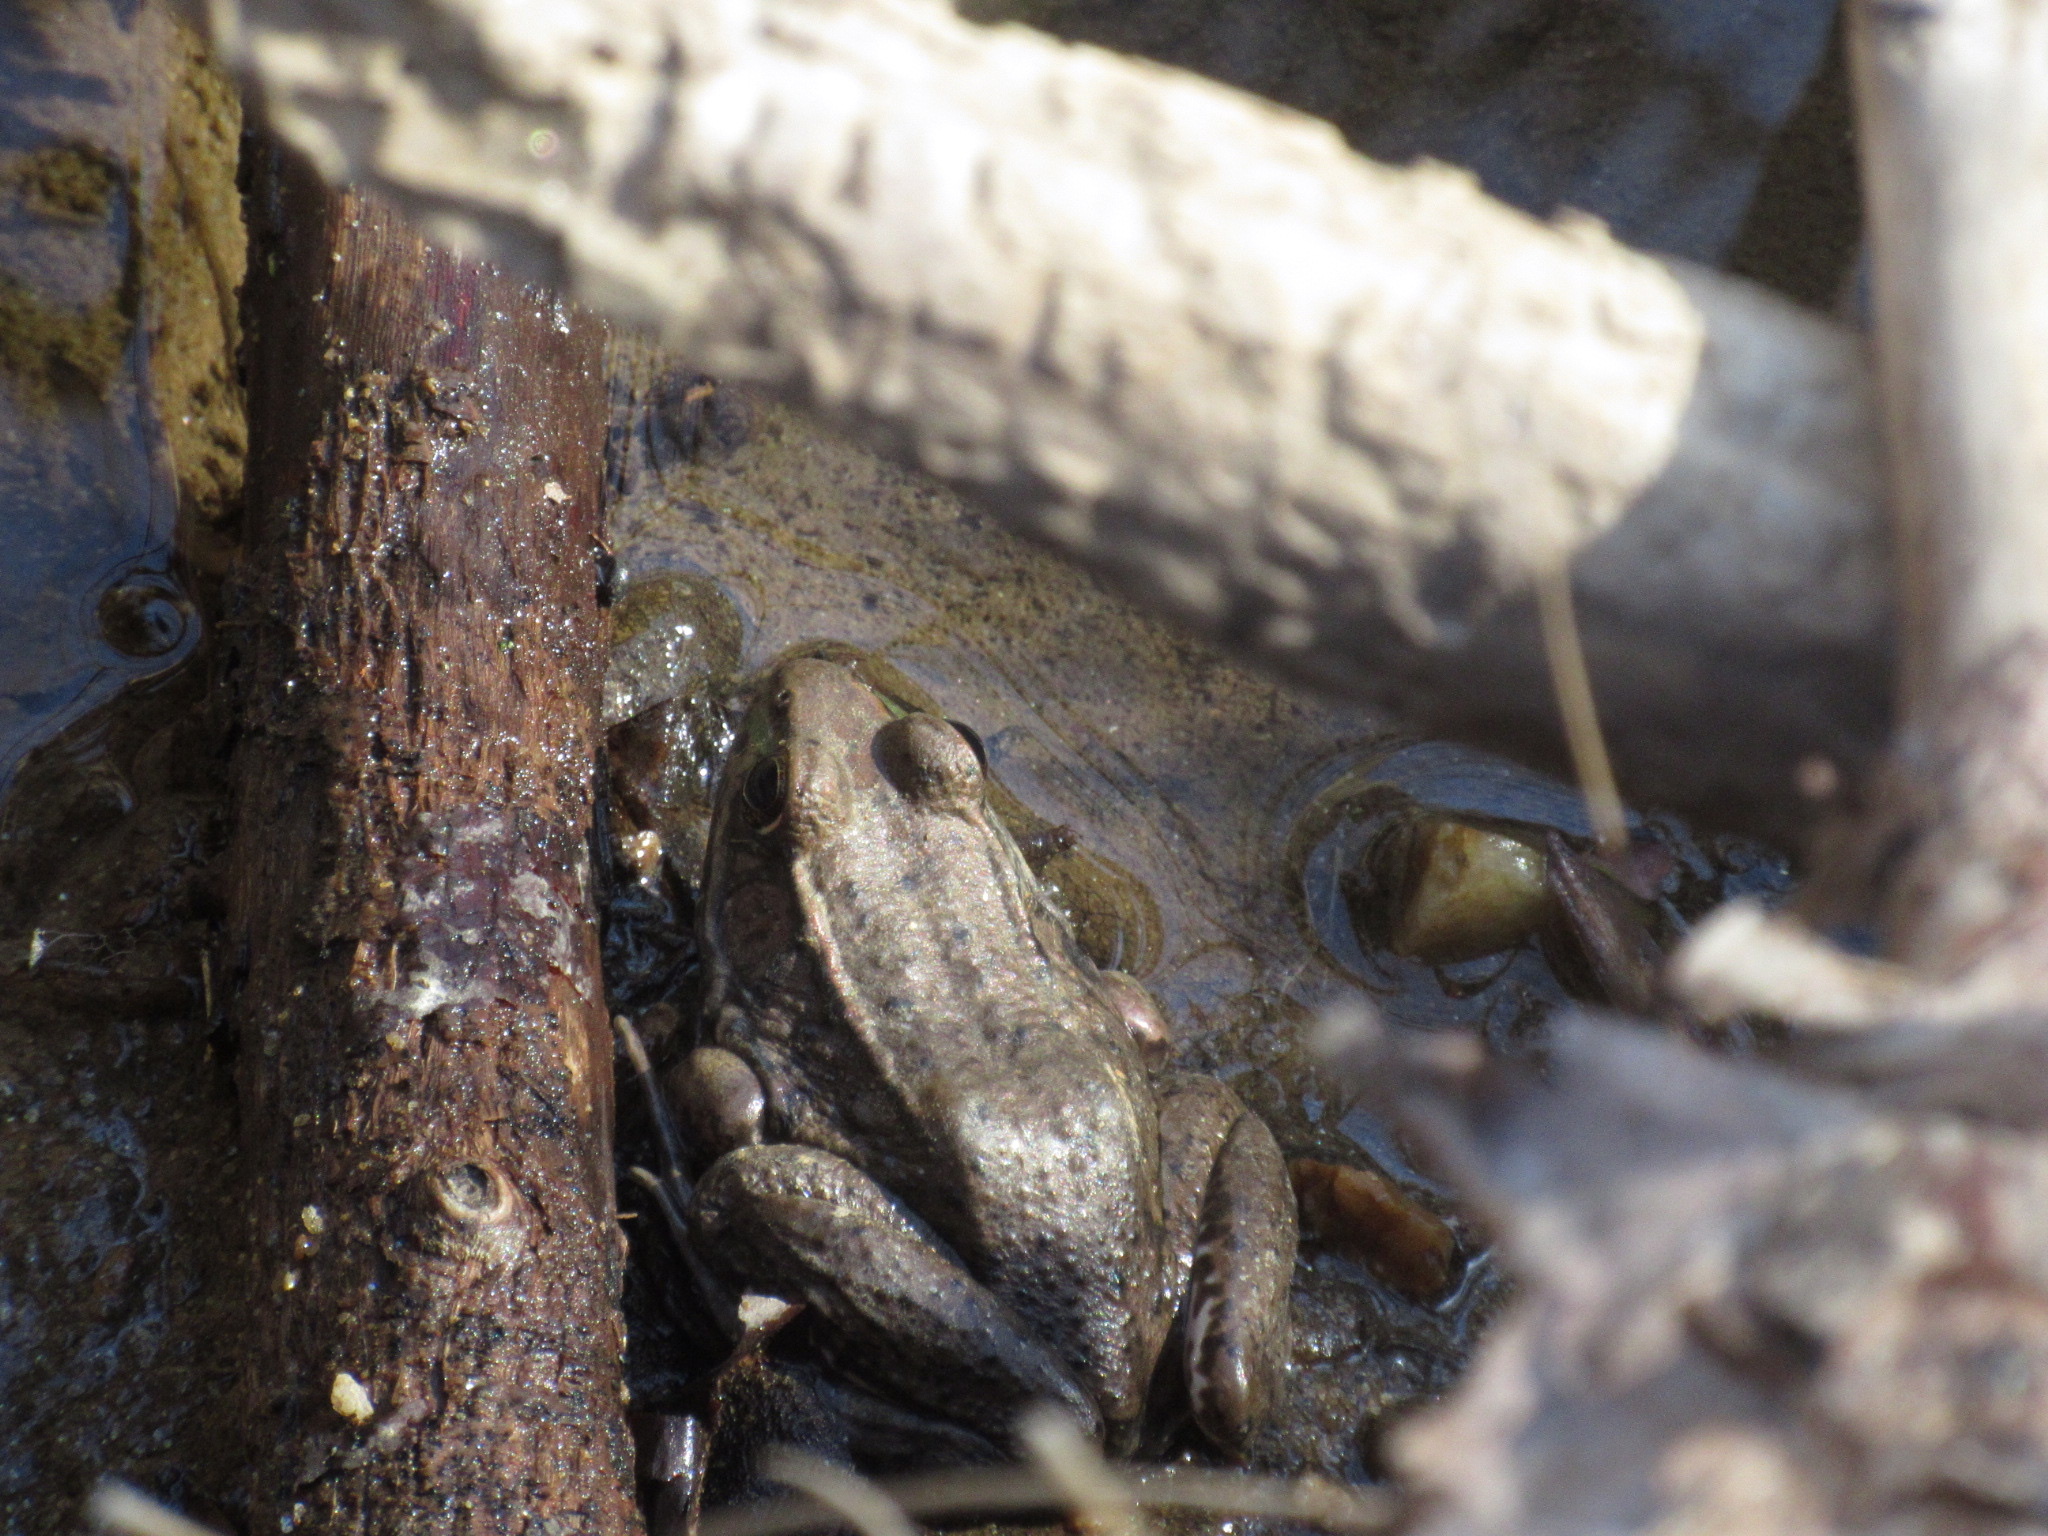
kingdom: Animalia
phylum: Chordata
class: Amphibia
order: Anura
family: Ranidae
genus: Lithobates
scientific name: Lithobates clamitans
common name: Green frog
